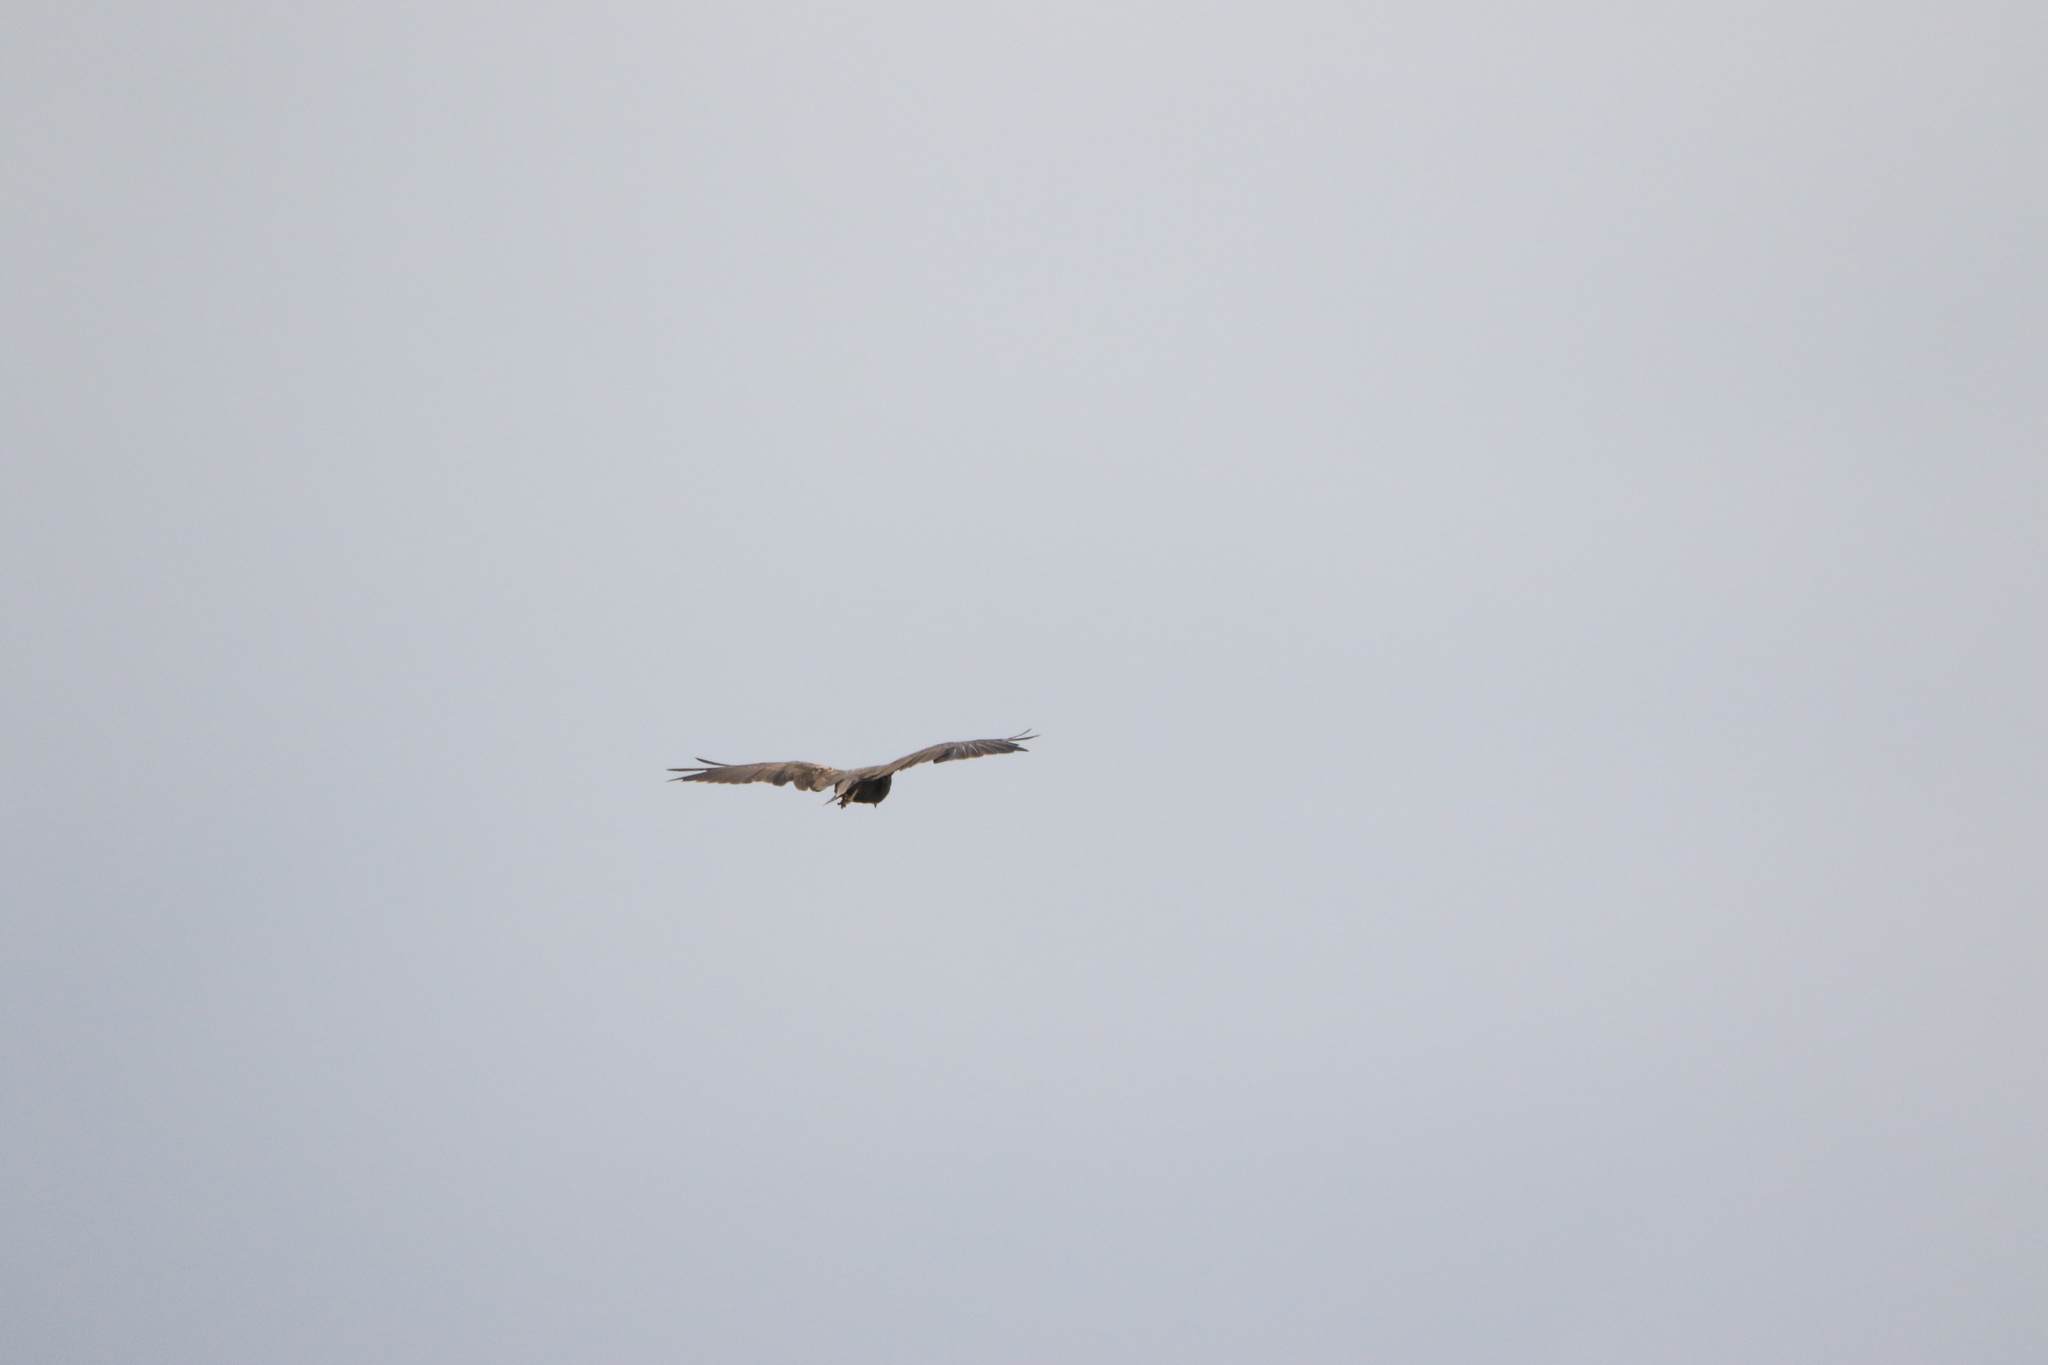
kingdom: Animalia
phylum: Chordata
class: Aves
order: Accipitriformes
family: Accipitridae
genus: Circus
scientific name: Circus aeruginosus
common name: Western marsh harrier
